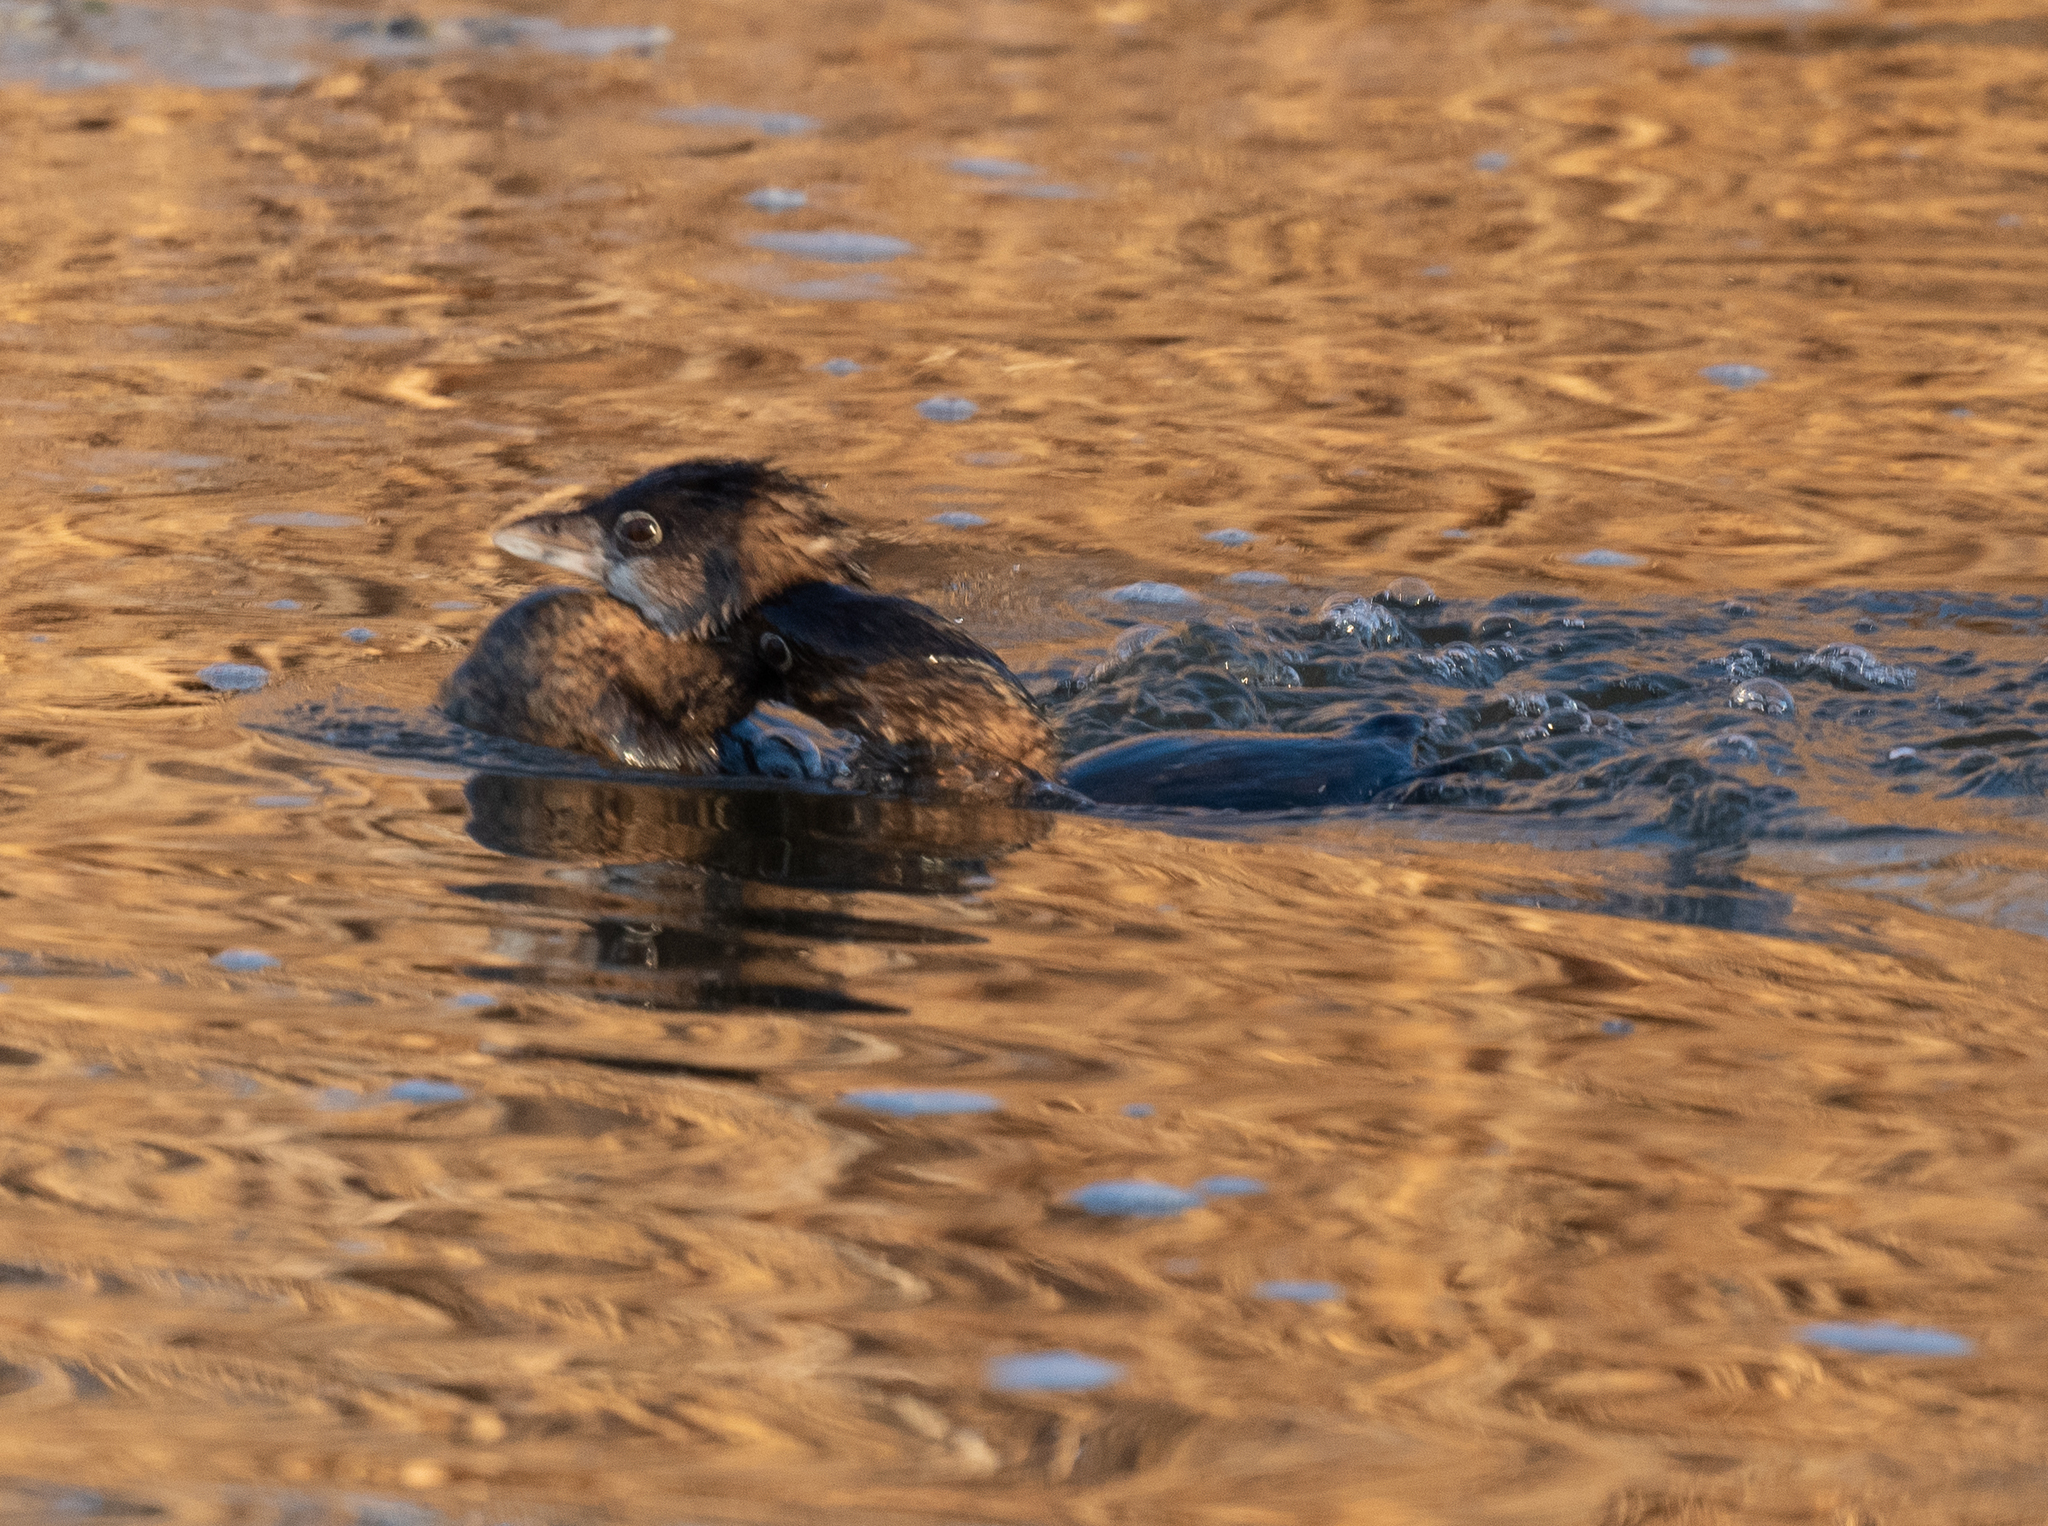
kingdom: Animalia
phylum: Chordata
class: Aves
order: Podicipediformes
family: Podicipedidae
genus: Podilymbus
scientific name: Podilymbus podiceps
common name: Pied-billed grebe
